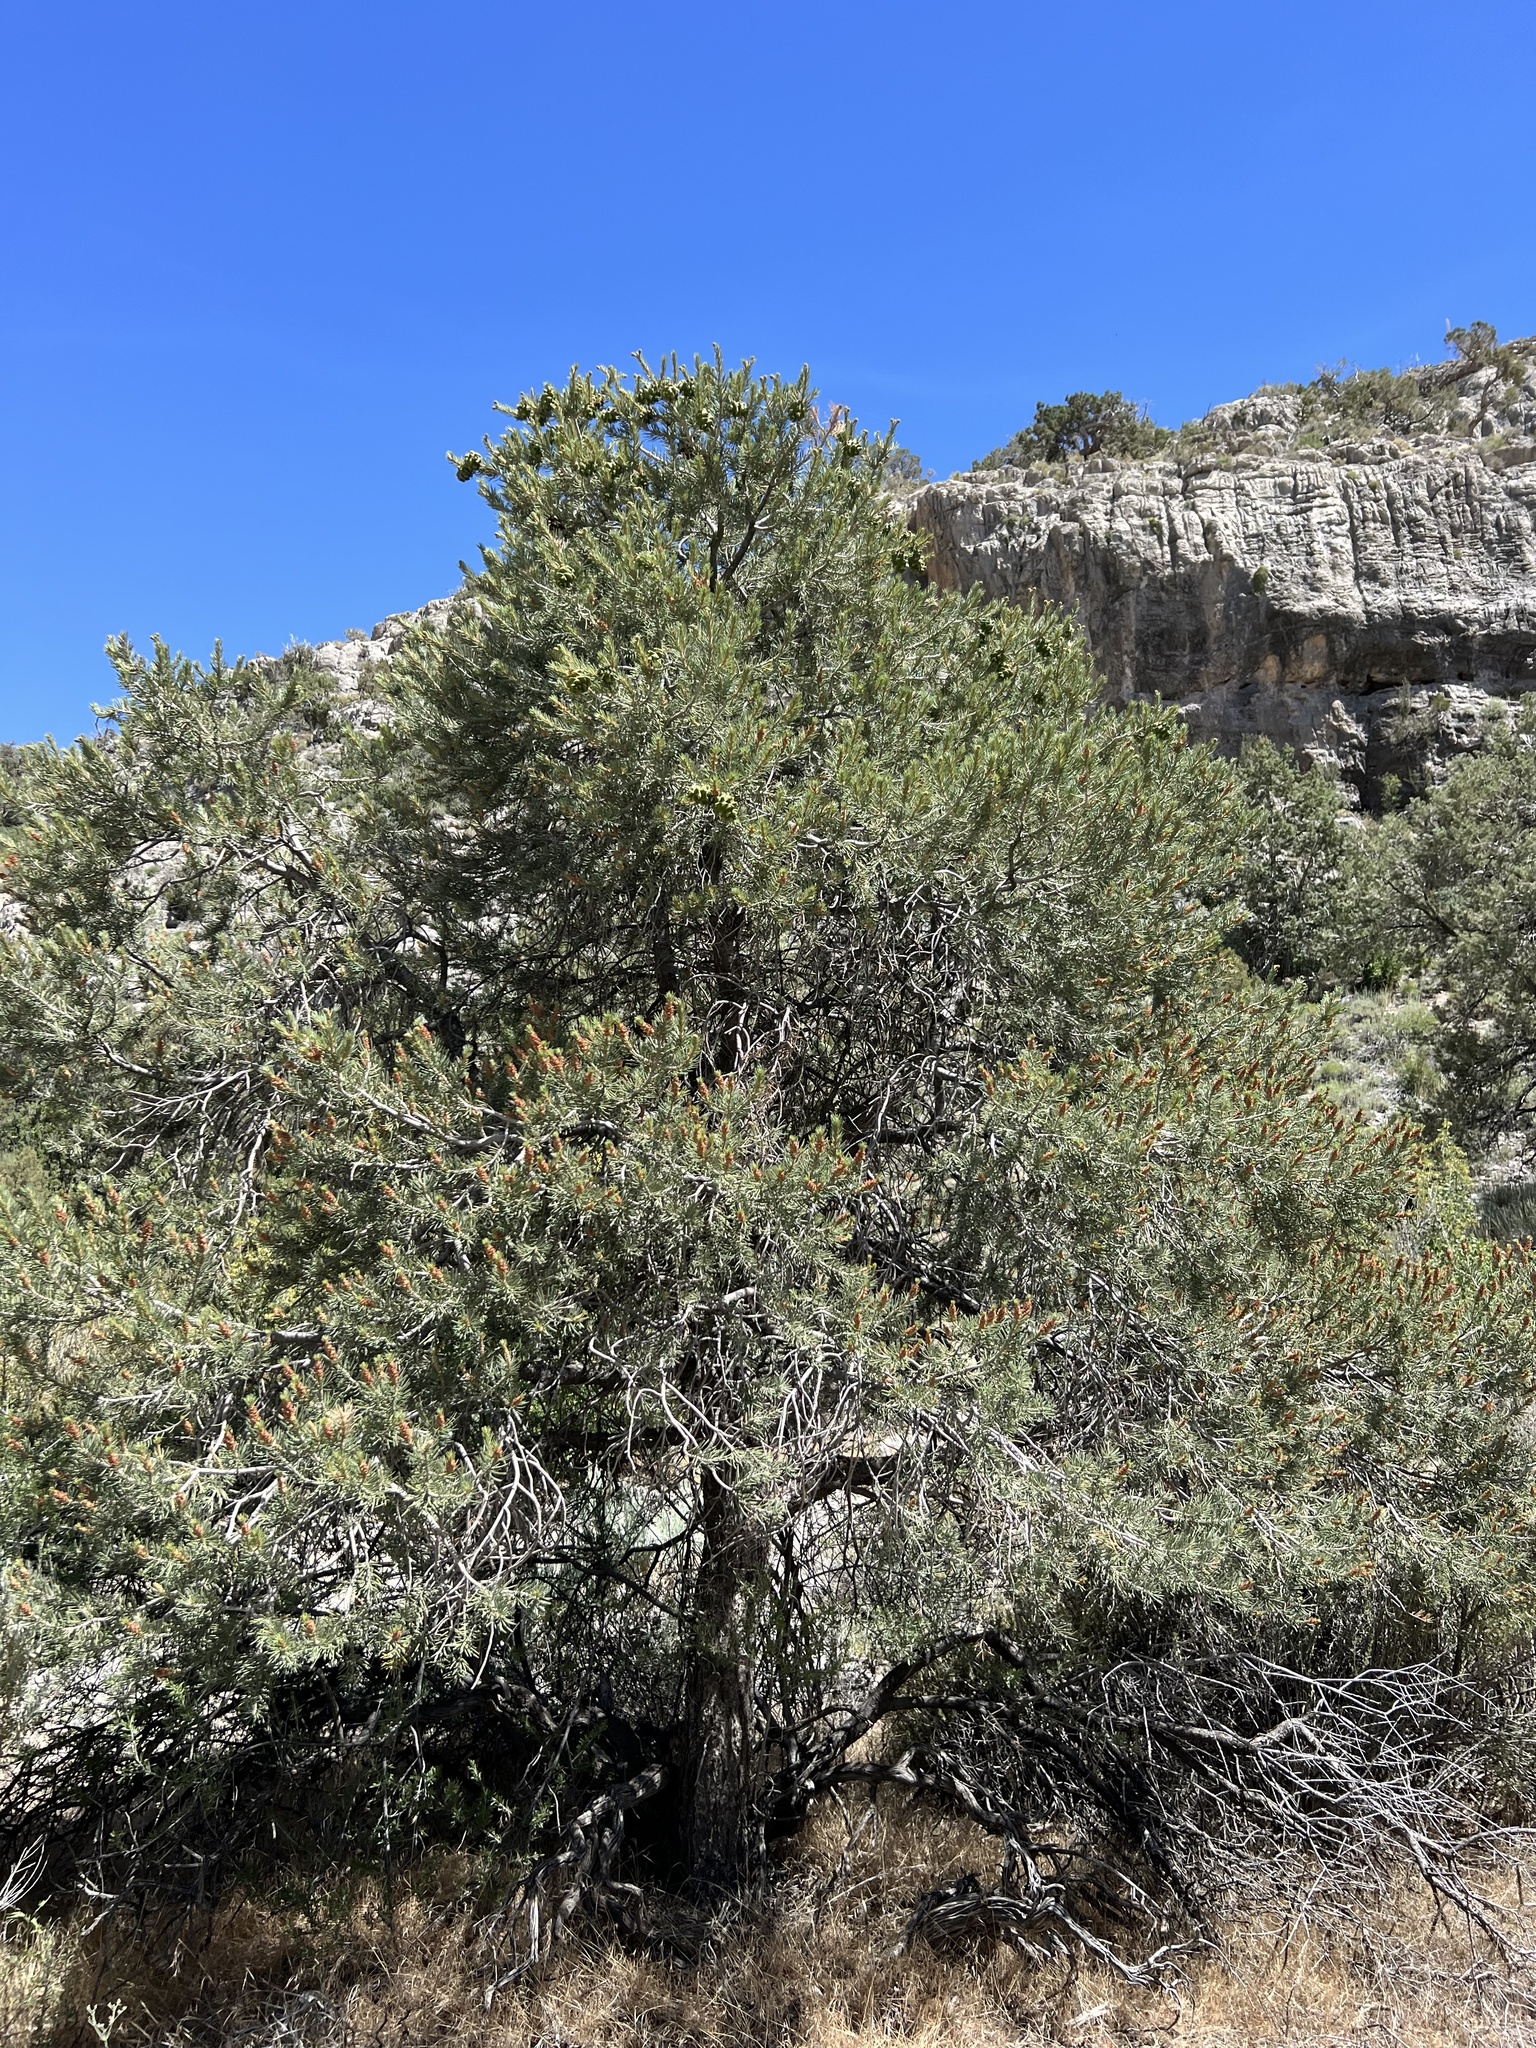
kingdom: Plantae
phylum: Tracheophyta
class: Pinopsida
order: Pinales
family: Pinaceae
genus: Pinus
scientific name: Pinus monophylla
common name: One-leaved nut pine
